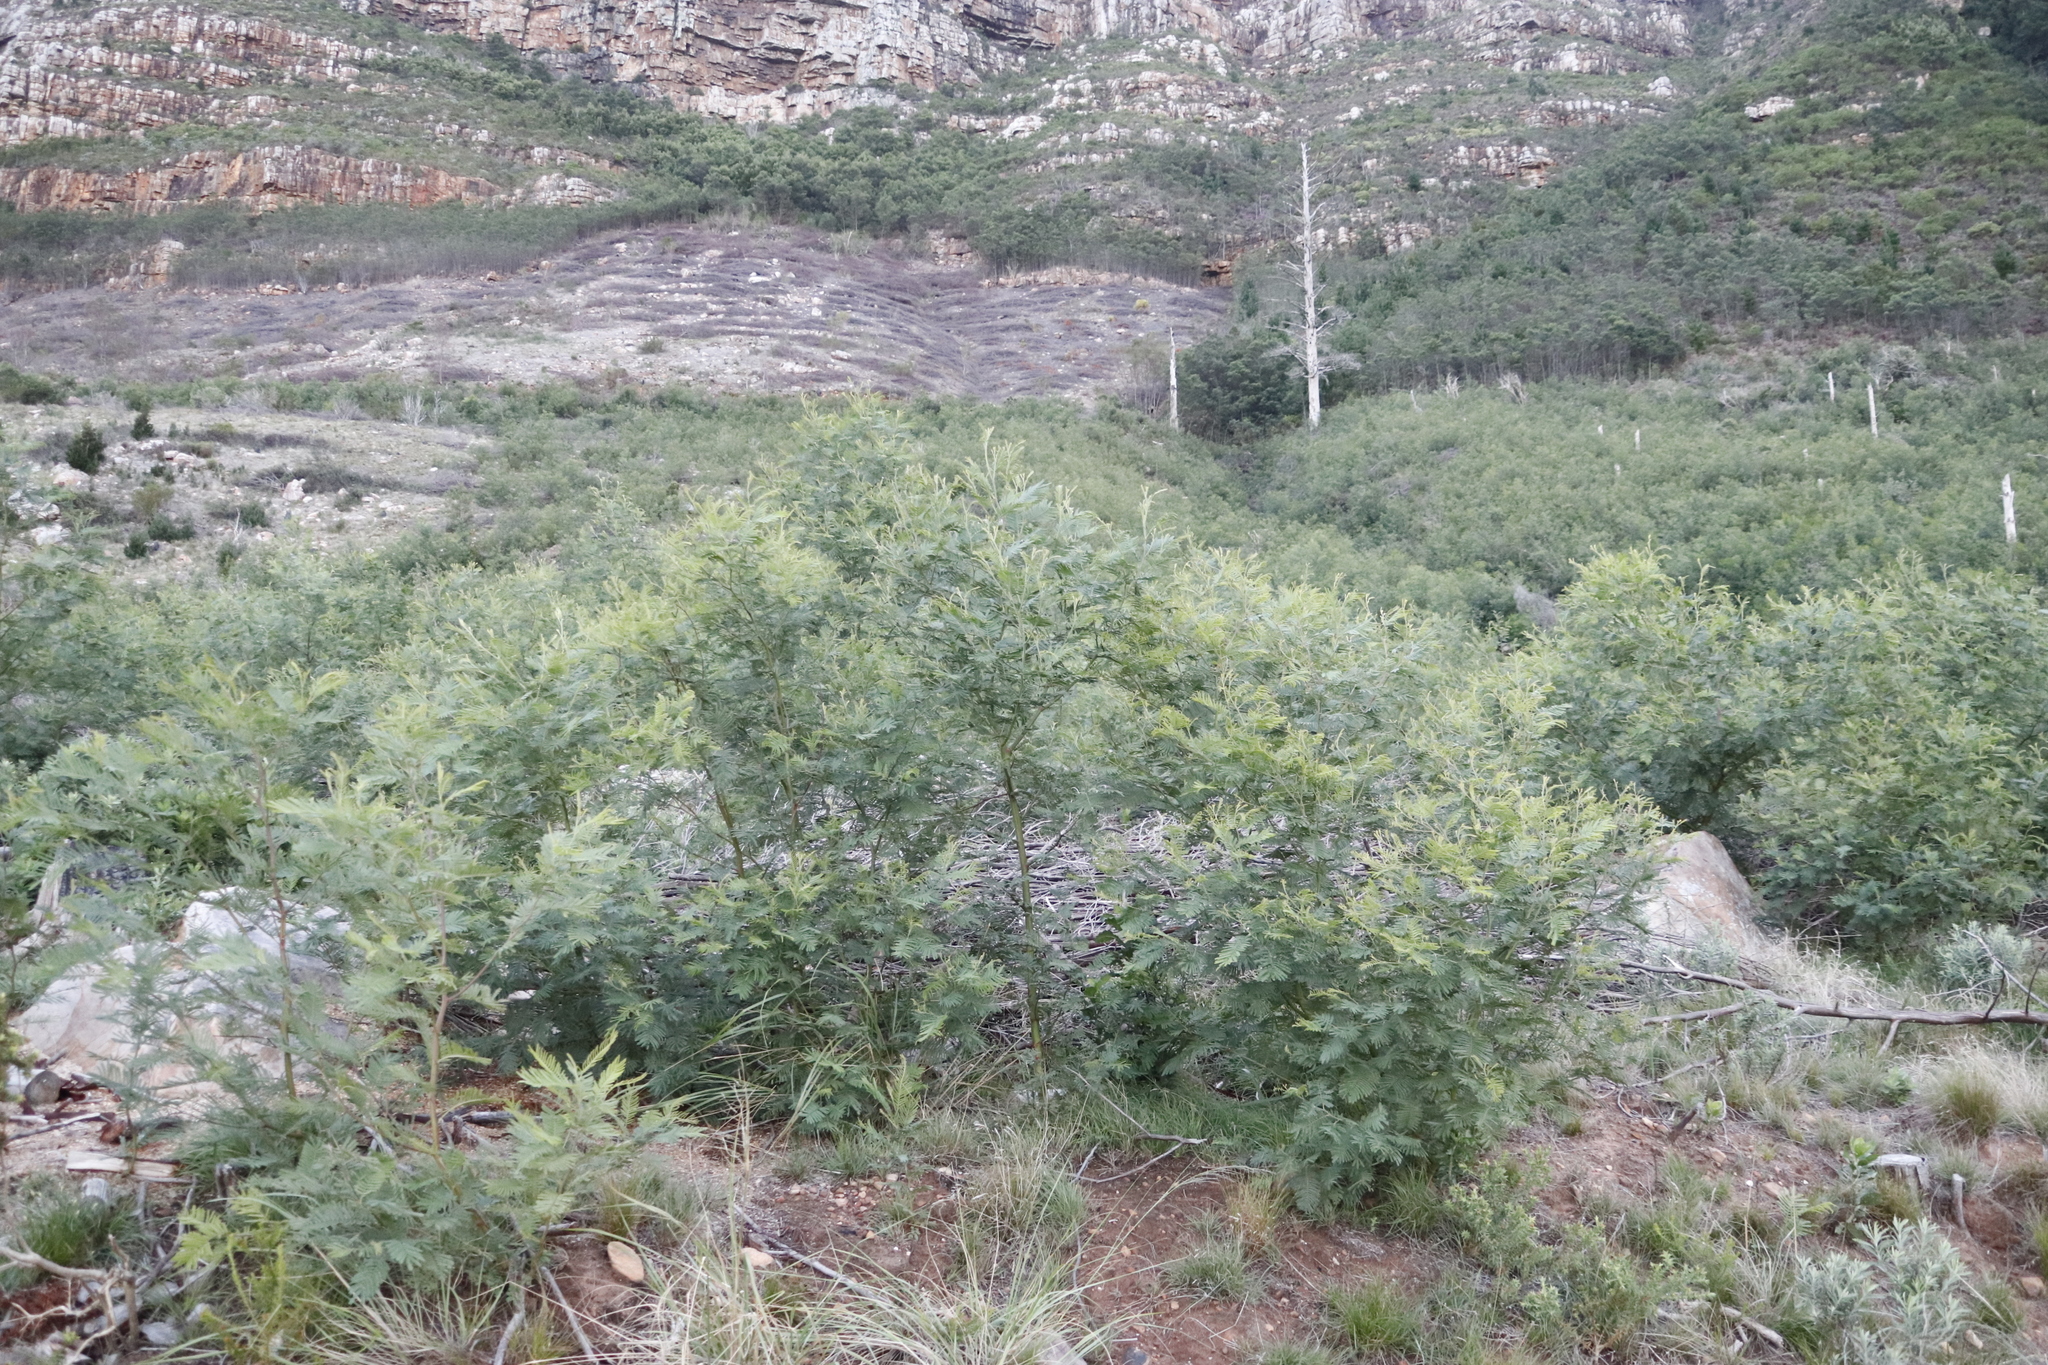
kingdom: Plantae
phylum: Tracheophyta
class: Magnoliopsida
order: Fabales
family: Fabaceae
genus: Acacia
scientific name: Acacia mearnsii
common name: Black wattle
